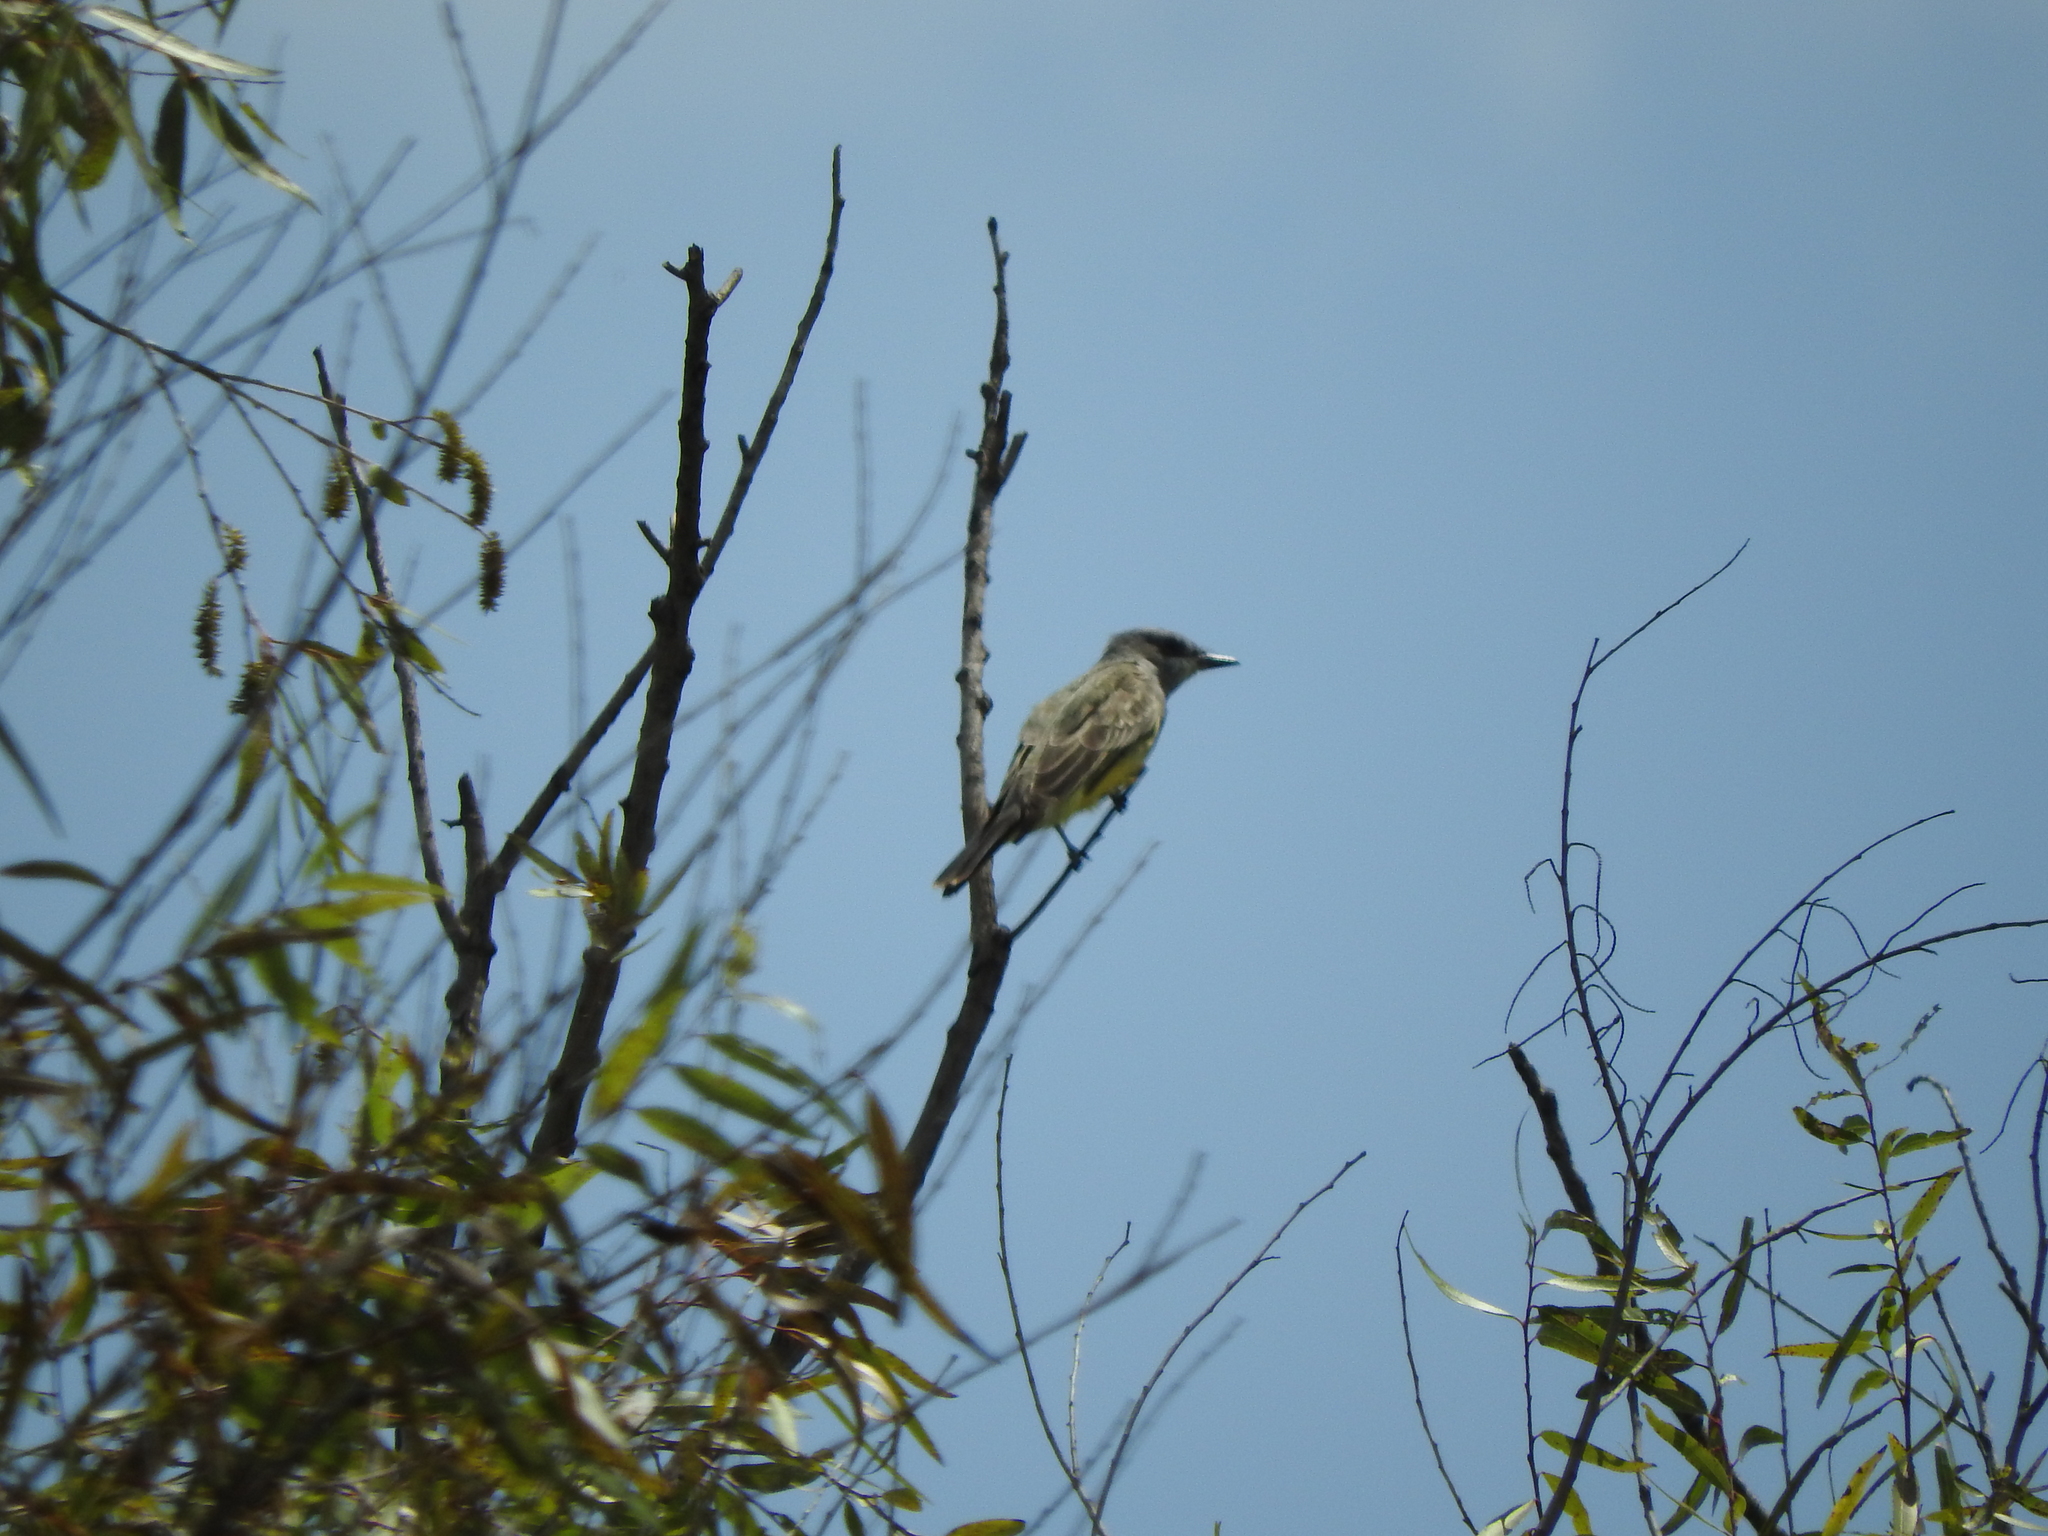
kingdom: Animalia
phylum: Chordata
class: Aves
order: Passeriformes
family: Tyrannidae
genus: Tyrannus
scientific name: Tyrannus vociferans
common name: Cassin's kingbird
